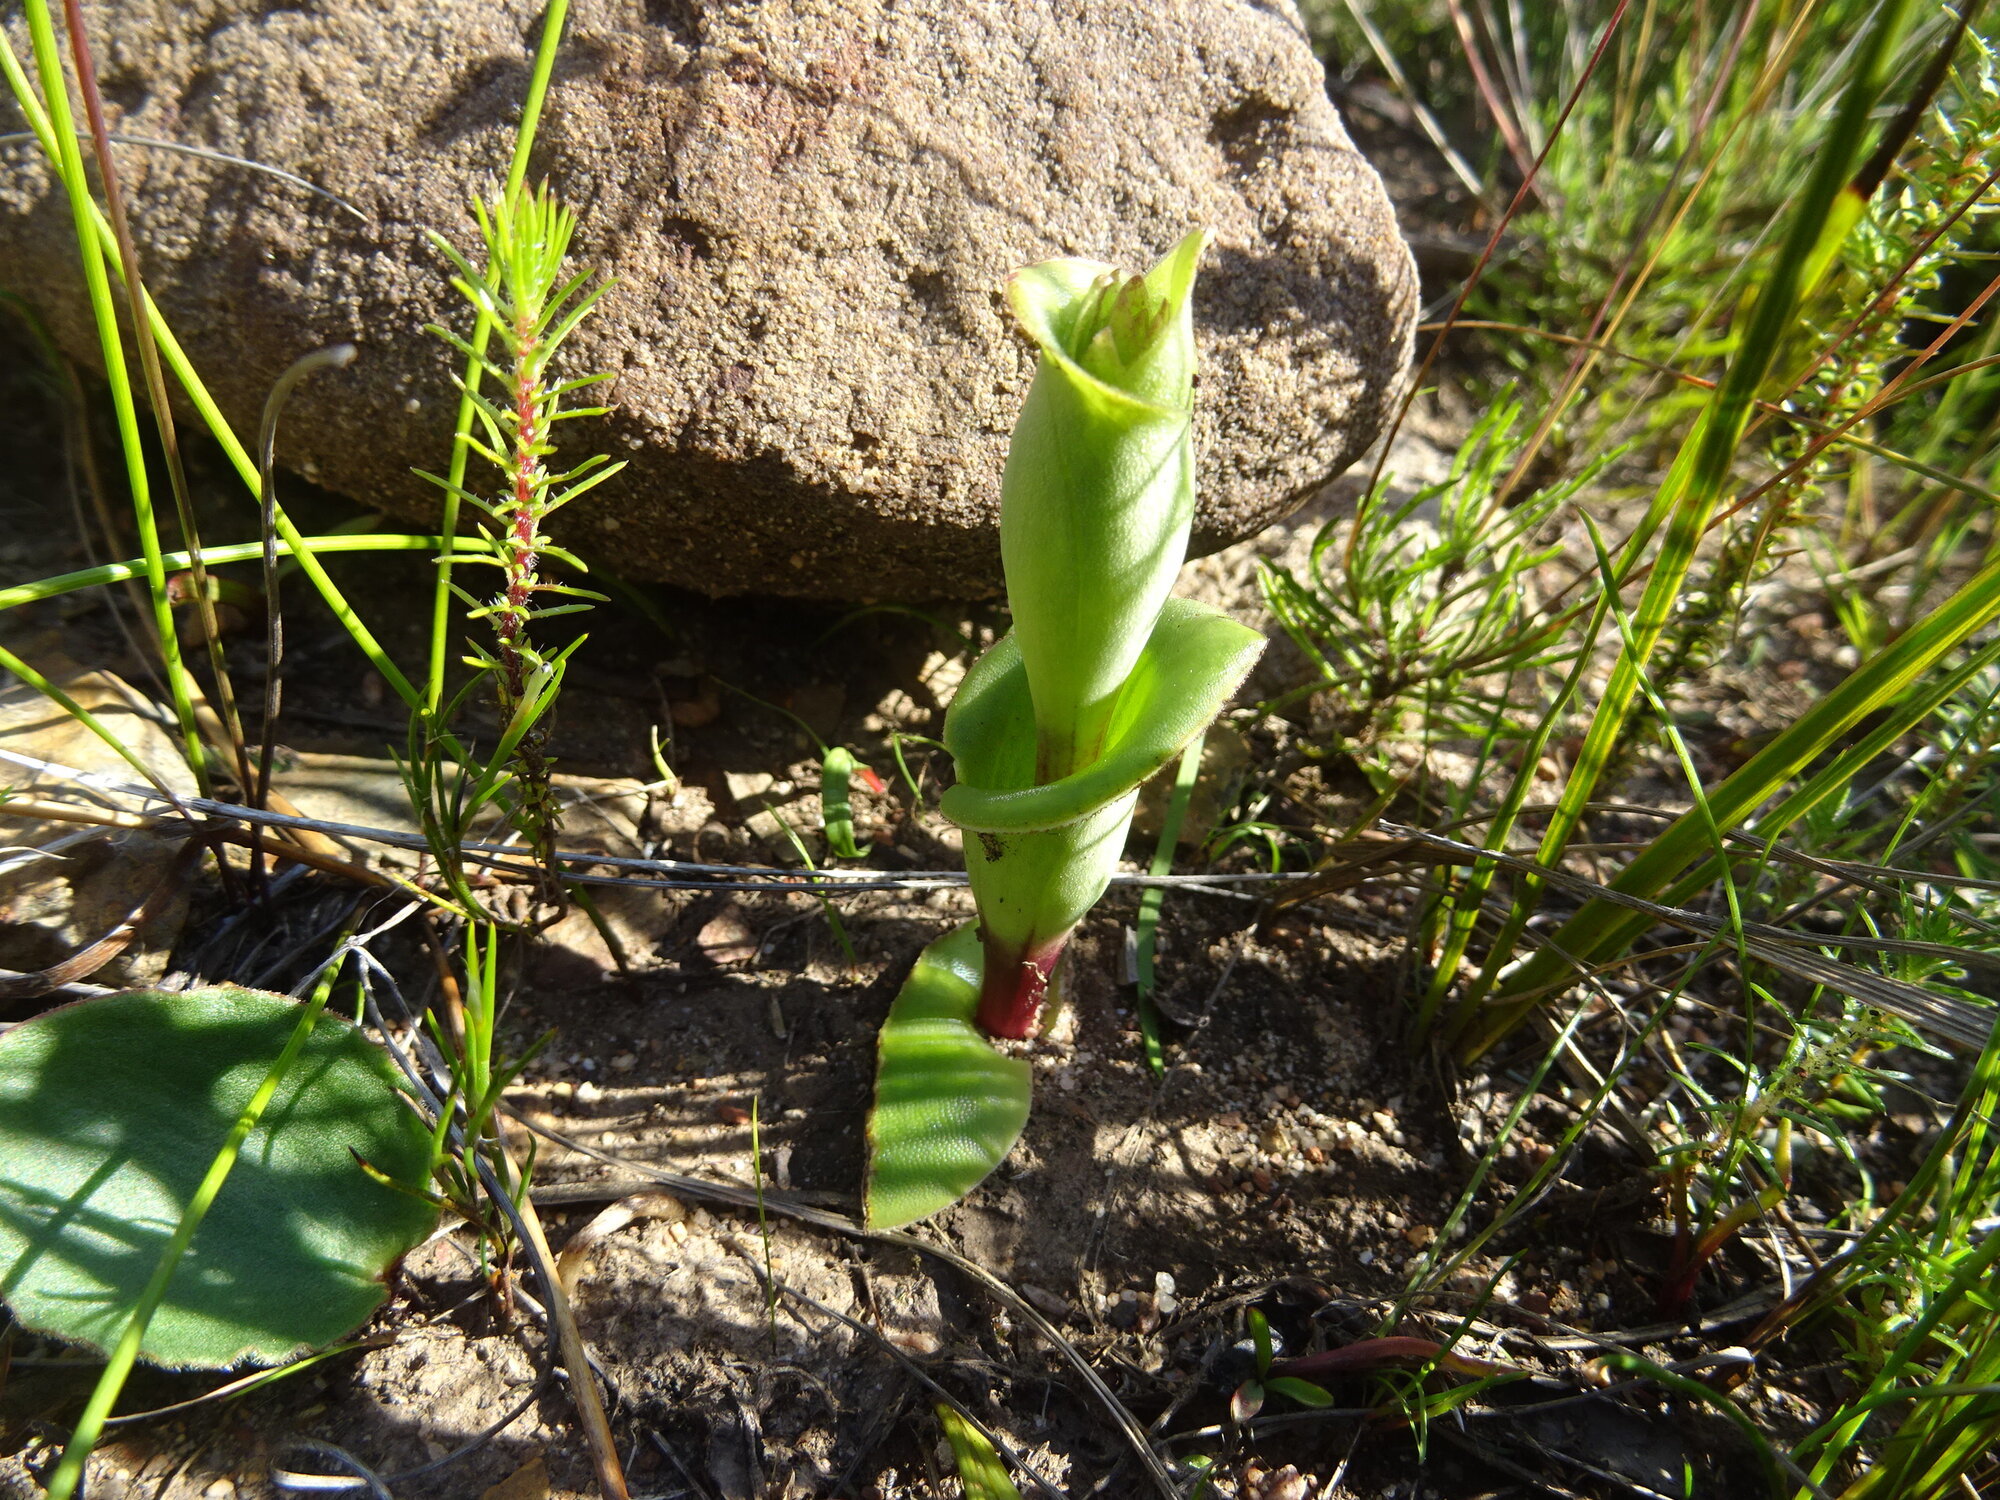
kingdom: Plantae
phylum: Tracheophyta
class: Liliopsida
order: Asparagales
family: Orchidaceae
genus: Satyrium
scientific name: Satyrium bicorne
